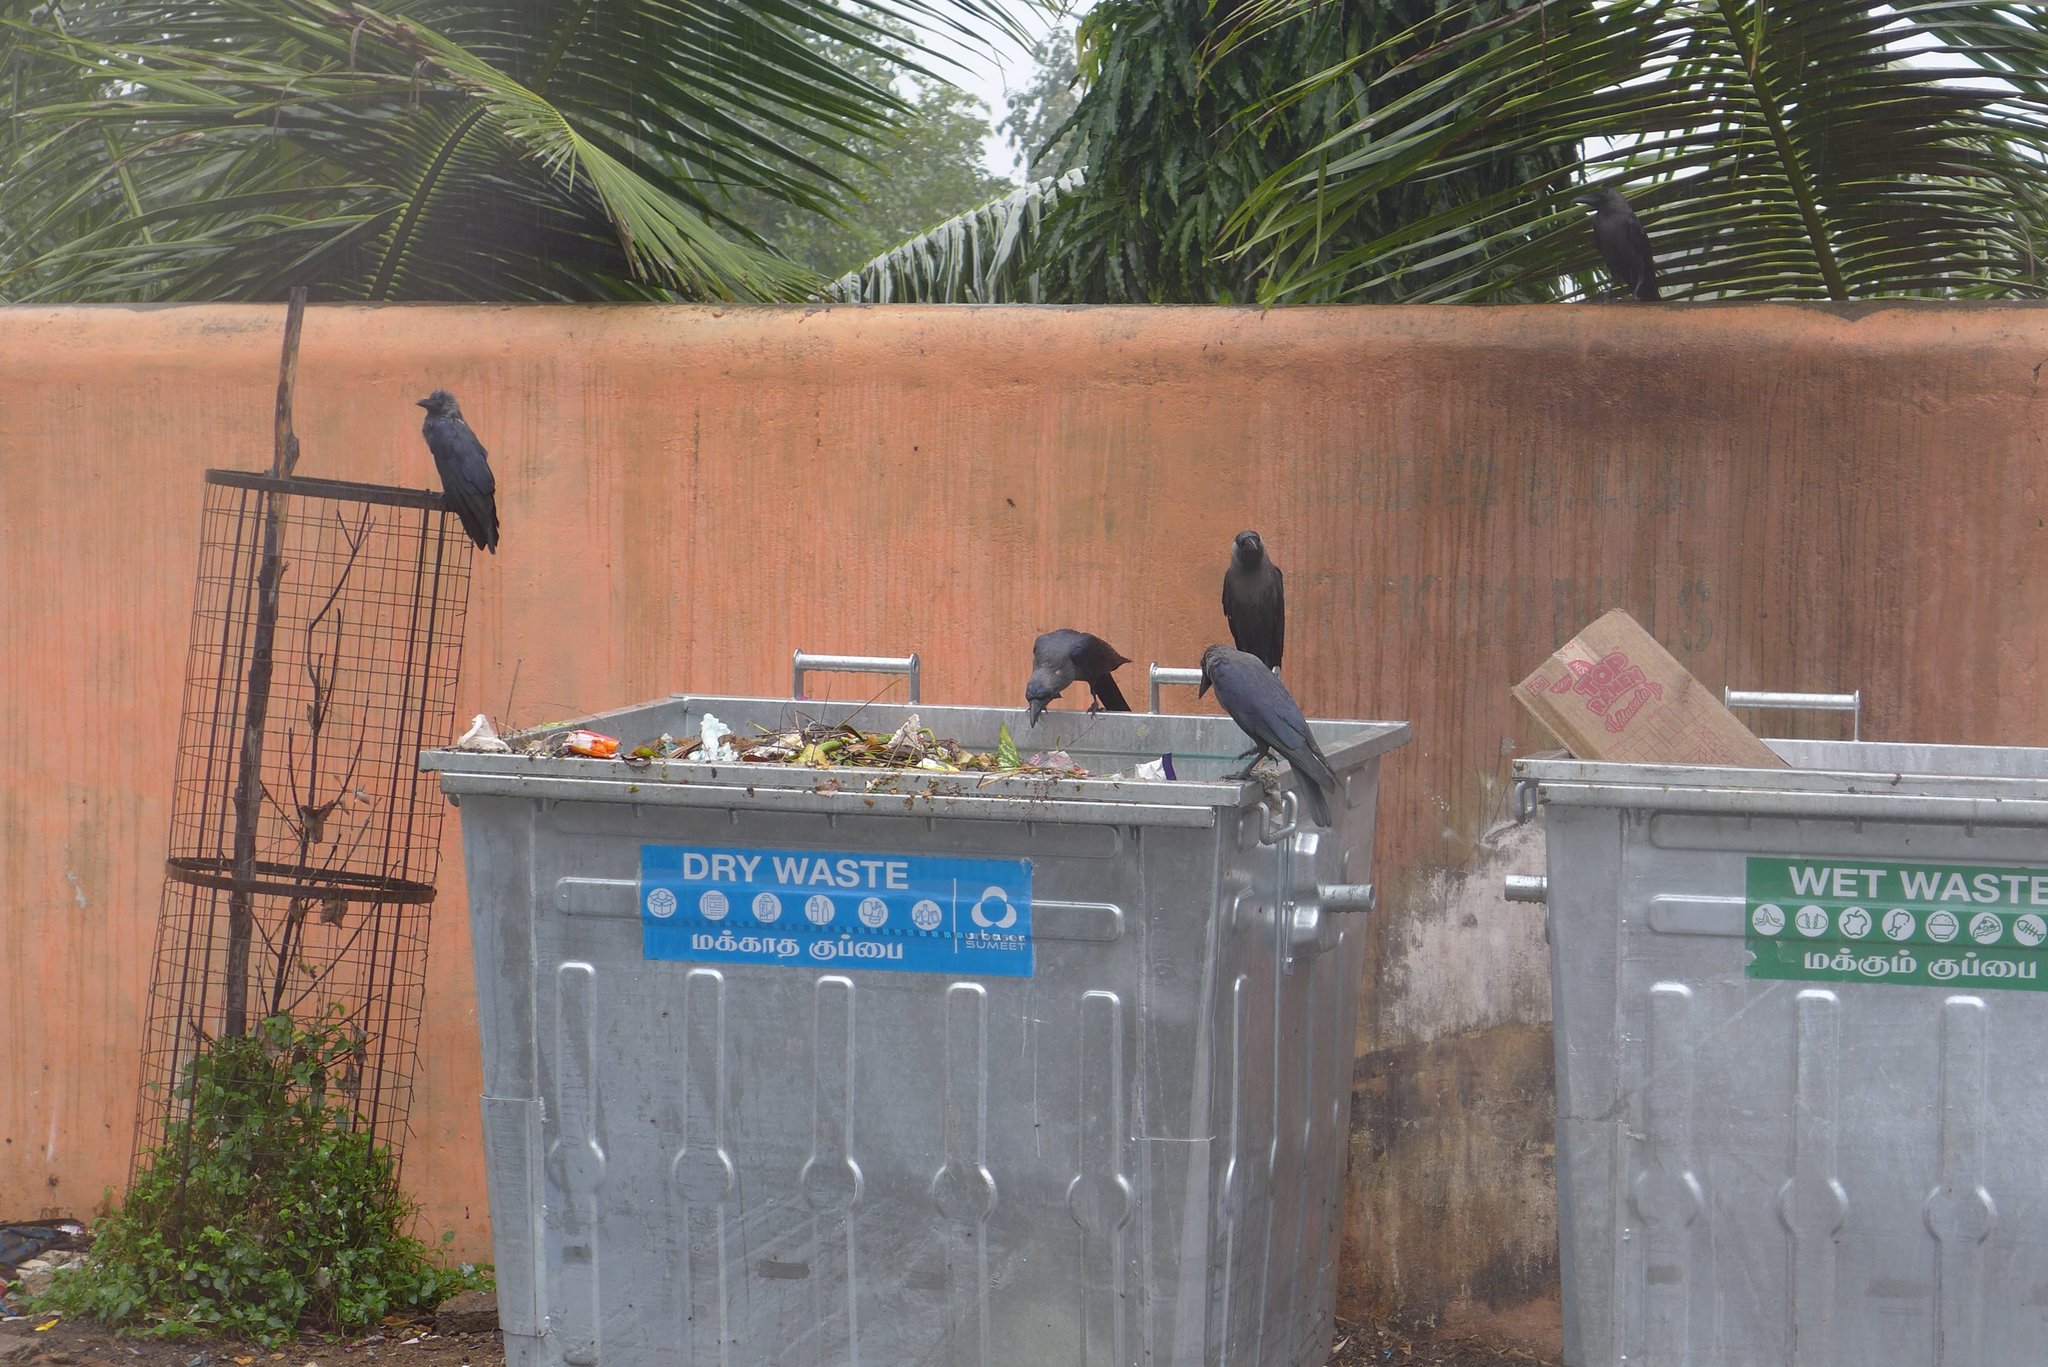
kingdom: Animalia
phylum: Chordata
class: Aves
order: Passeriformes
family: Corvidae
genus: Corvus
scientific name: Corvus splendens
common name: House crow
